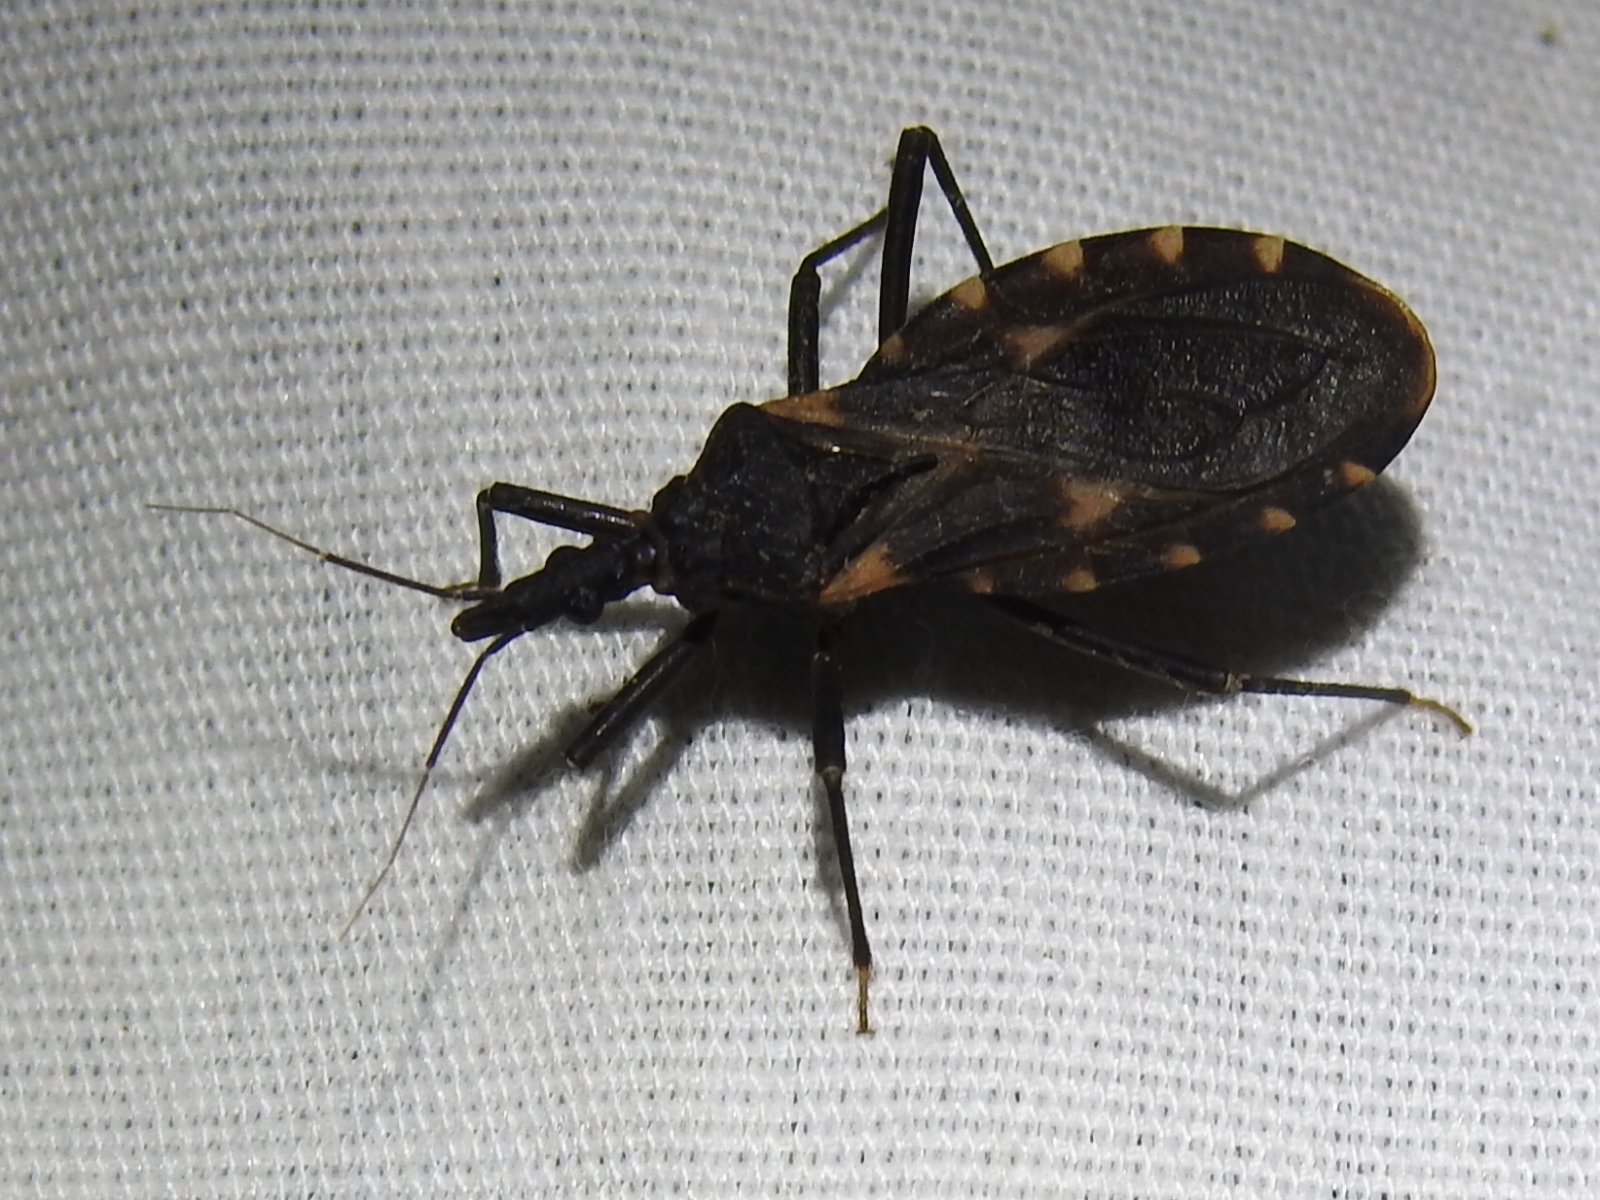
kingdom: Animalia
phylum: Arthropoda
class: Insecta
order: Hemiptera
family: Reduviidae
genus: Triatoma
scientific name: Triatoma sanguisuga
